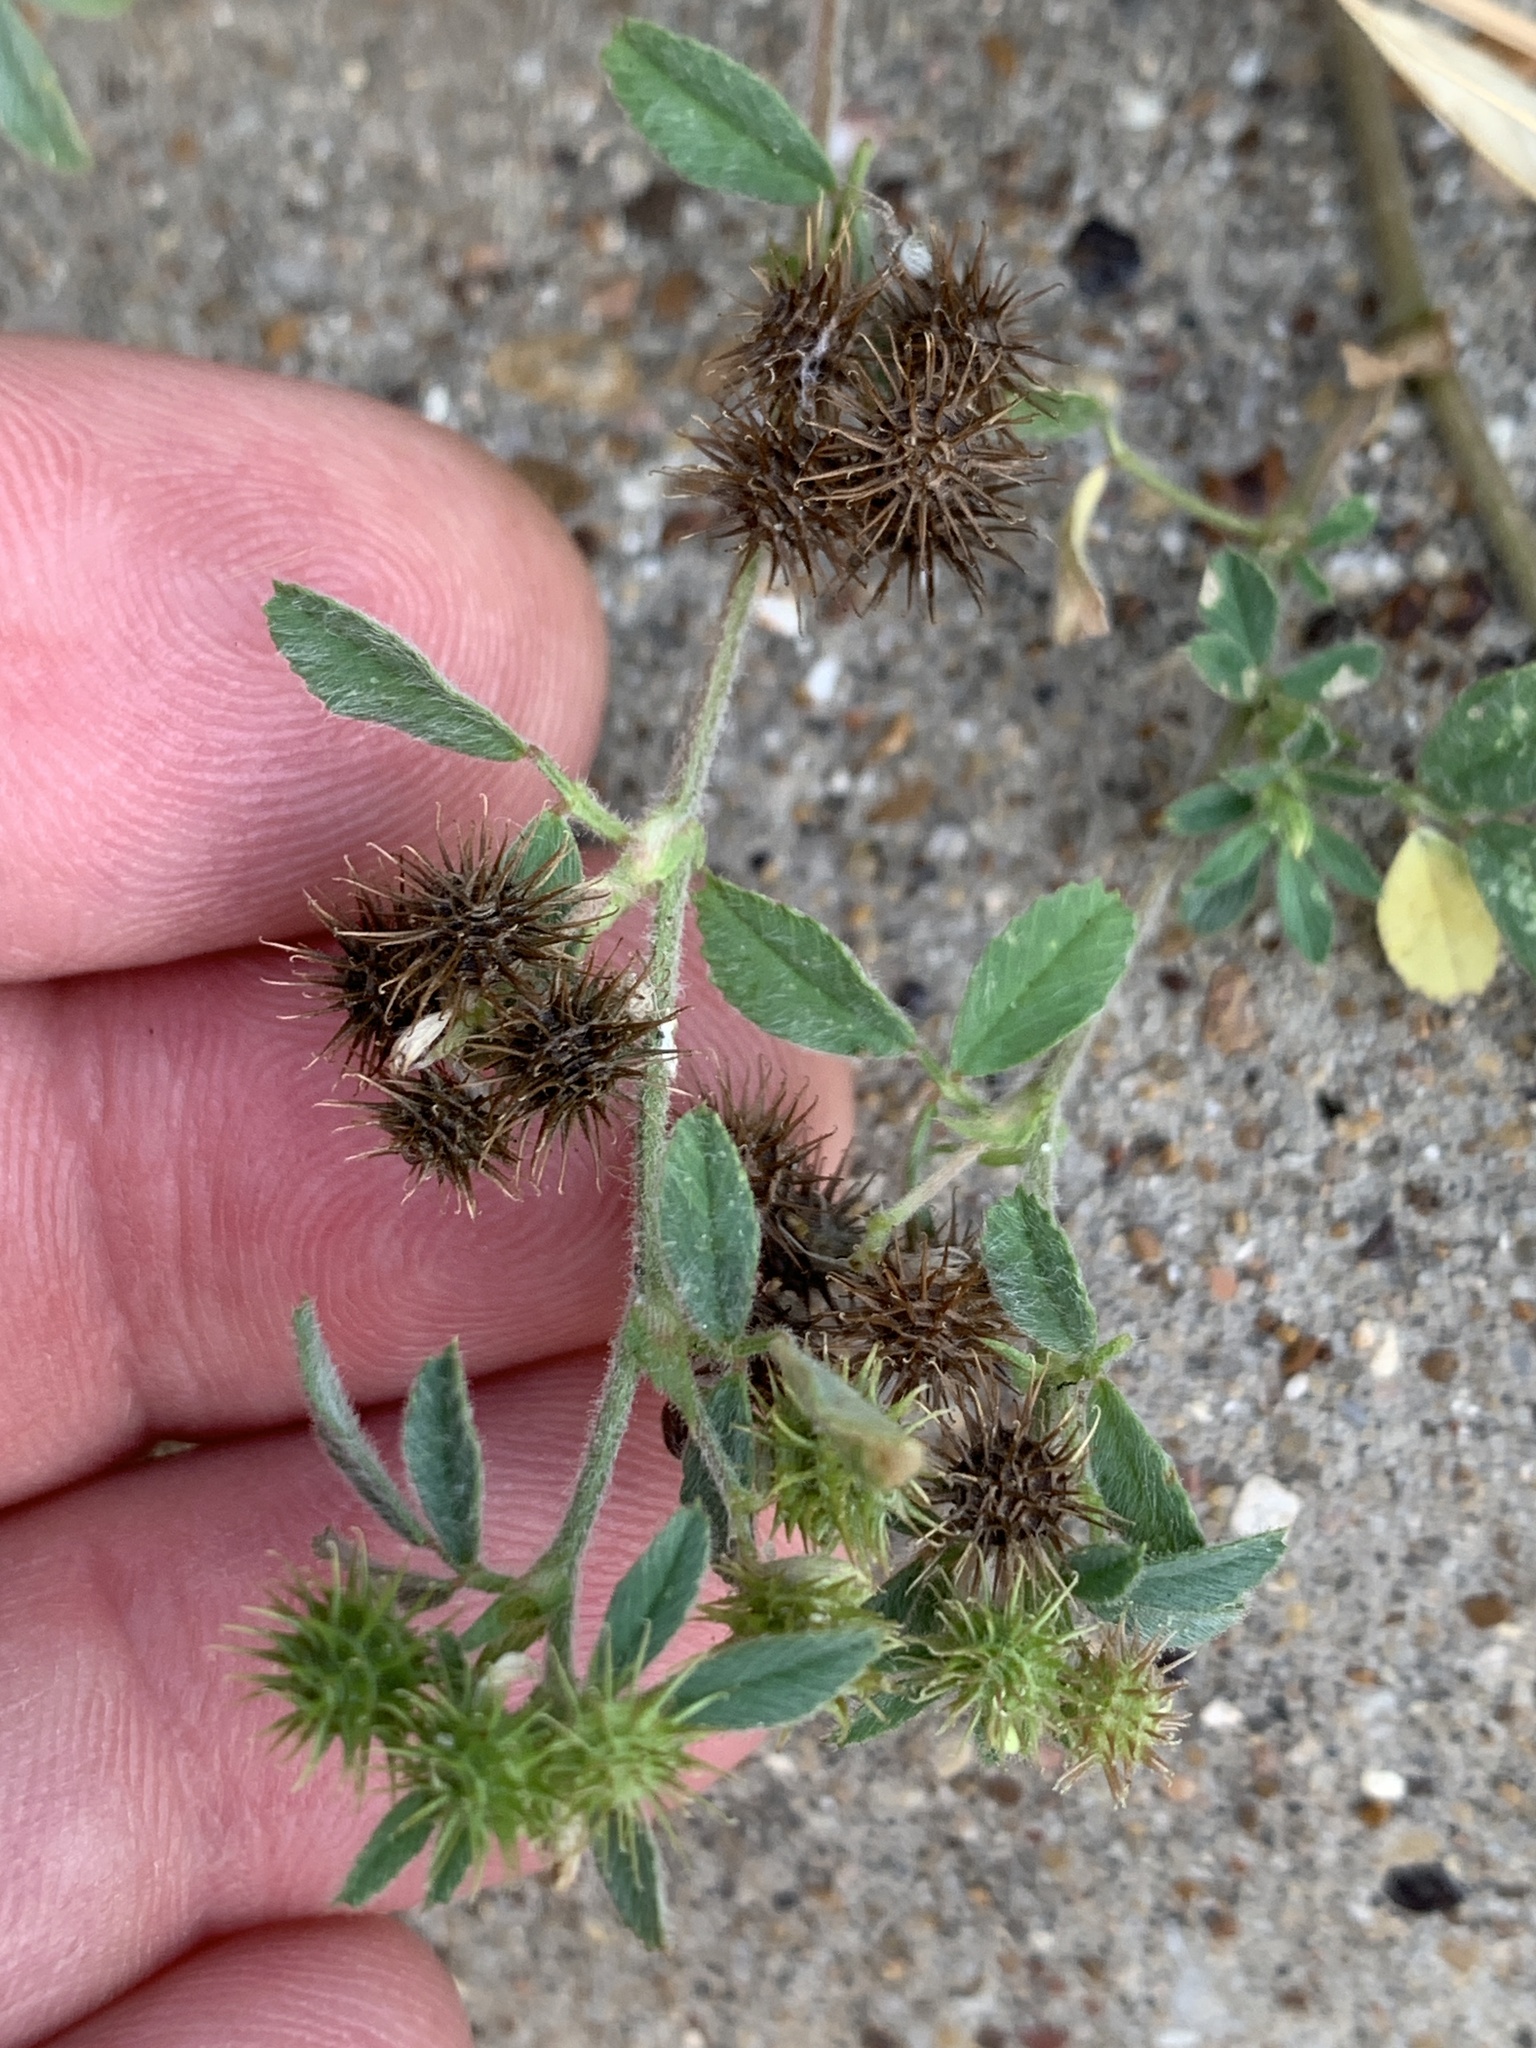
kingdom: Plantae
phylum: Tracheophyta
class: Magnoliopsida
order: Fabales
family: Fabaceae
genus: Medicago
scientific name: Medicago minima
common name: Little bur-clover
